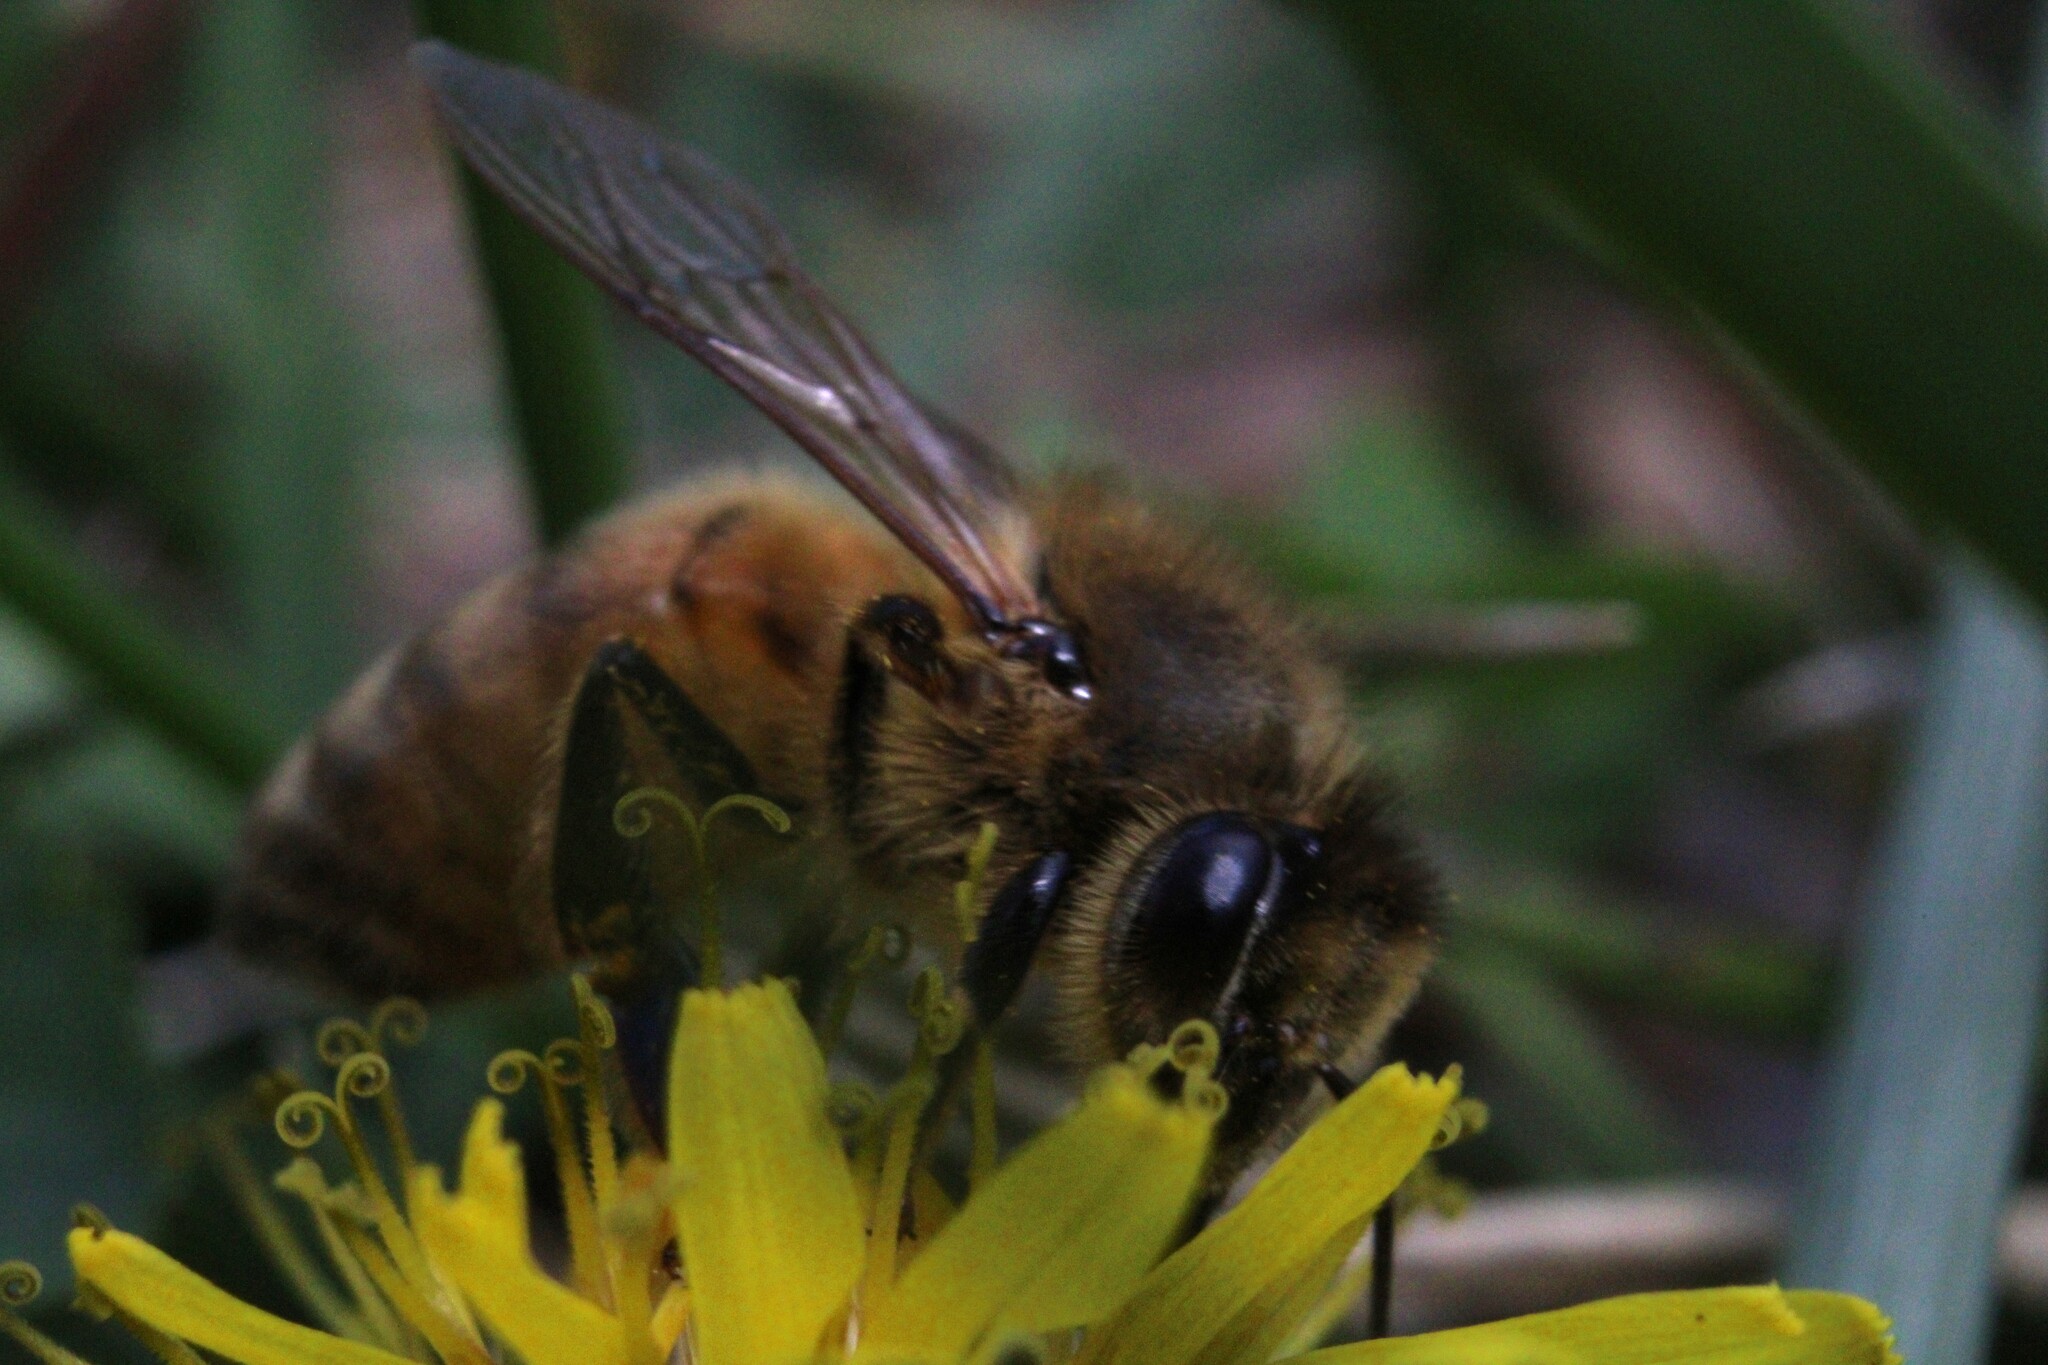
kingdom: Animalia
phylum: Arthropoda
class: Insecta
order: Hymenoptera
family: Apidae
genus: Apis
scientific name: Apis mellifera
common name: Honey bee
